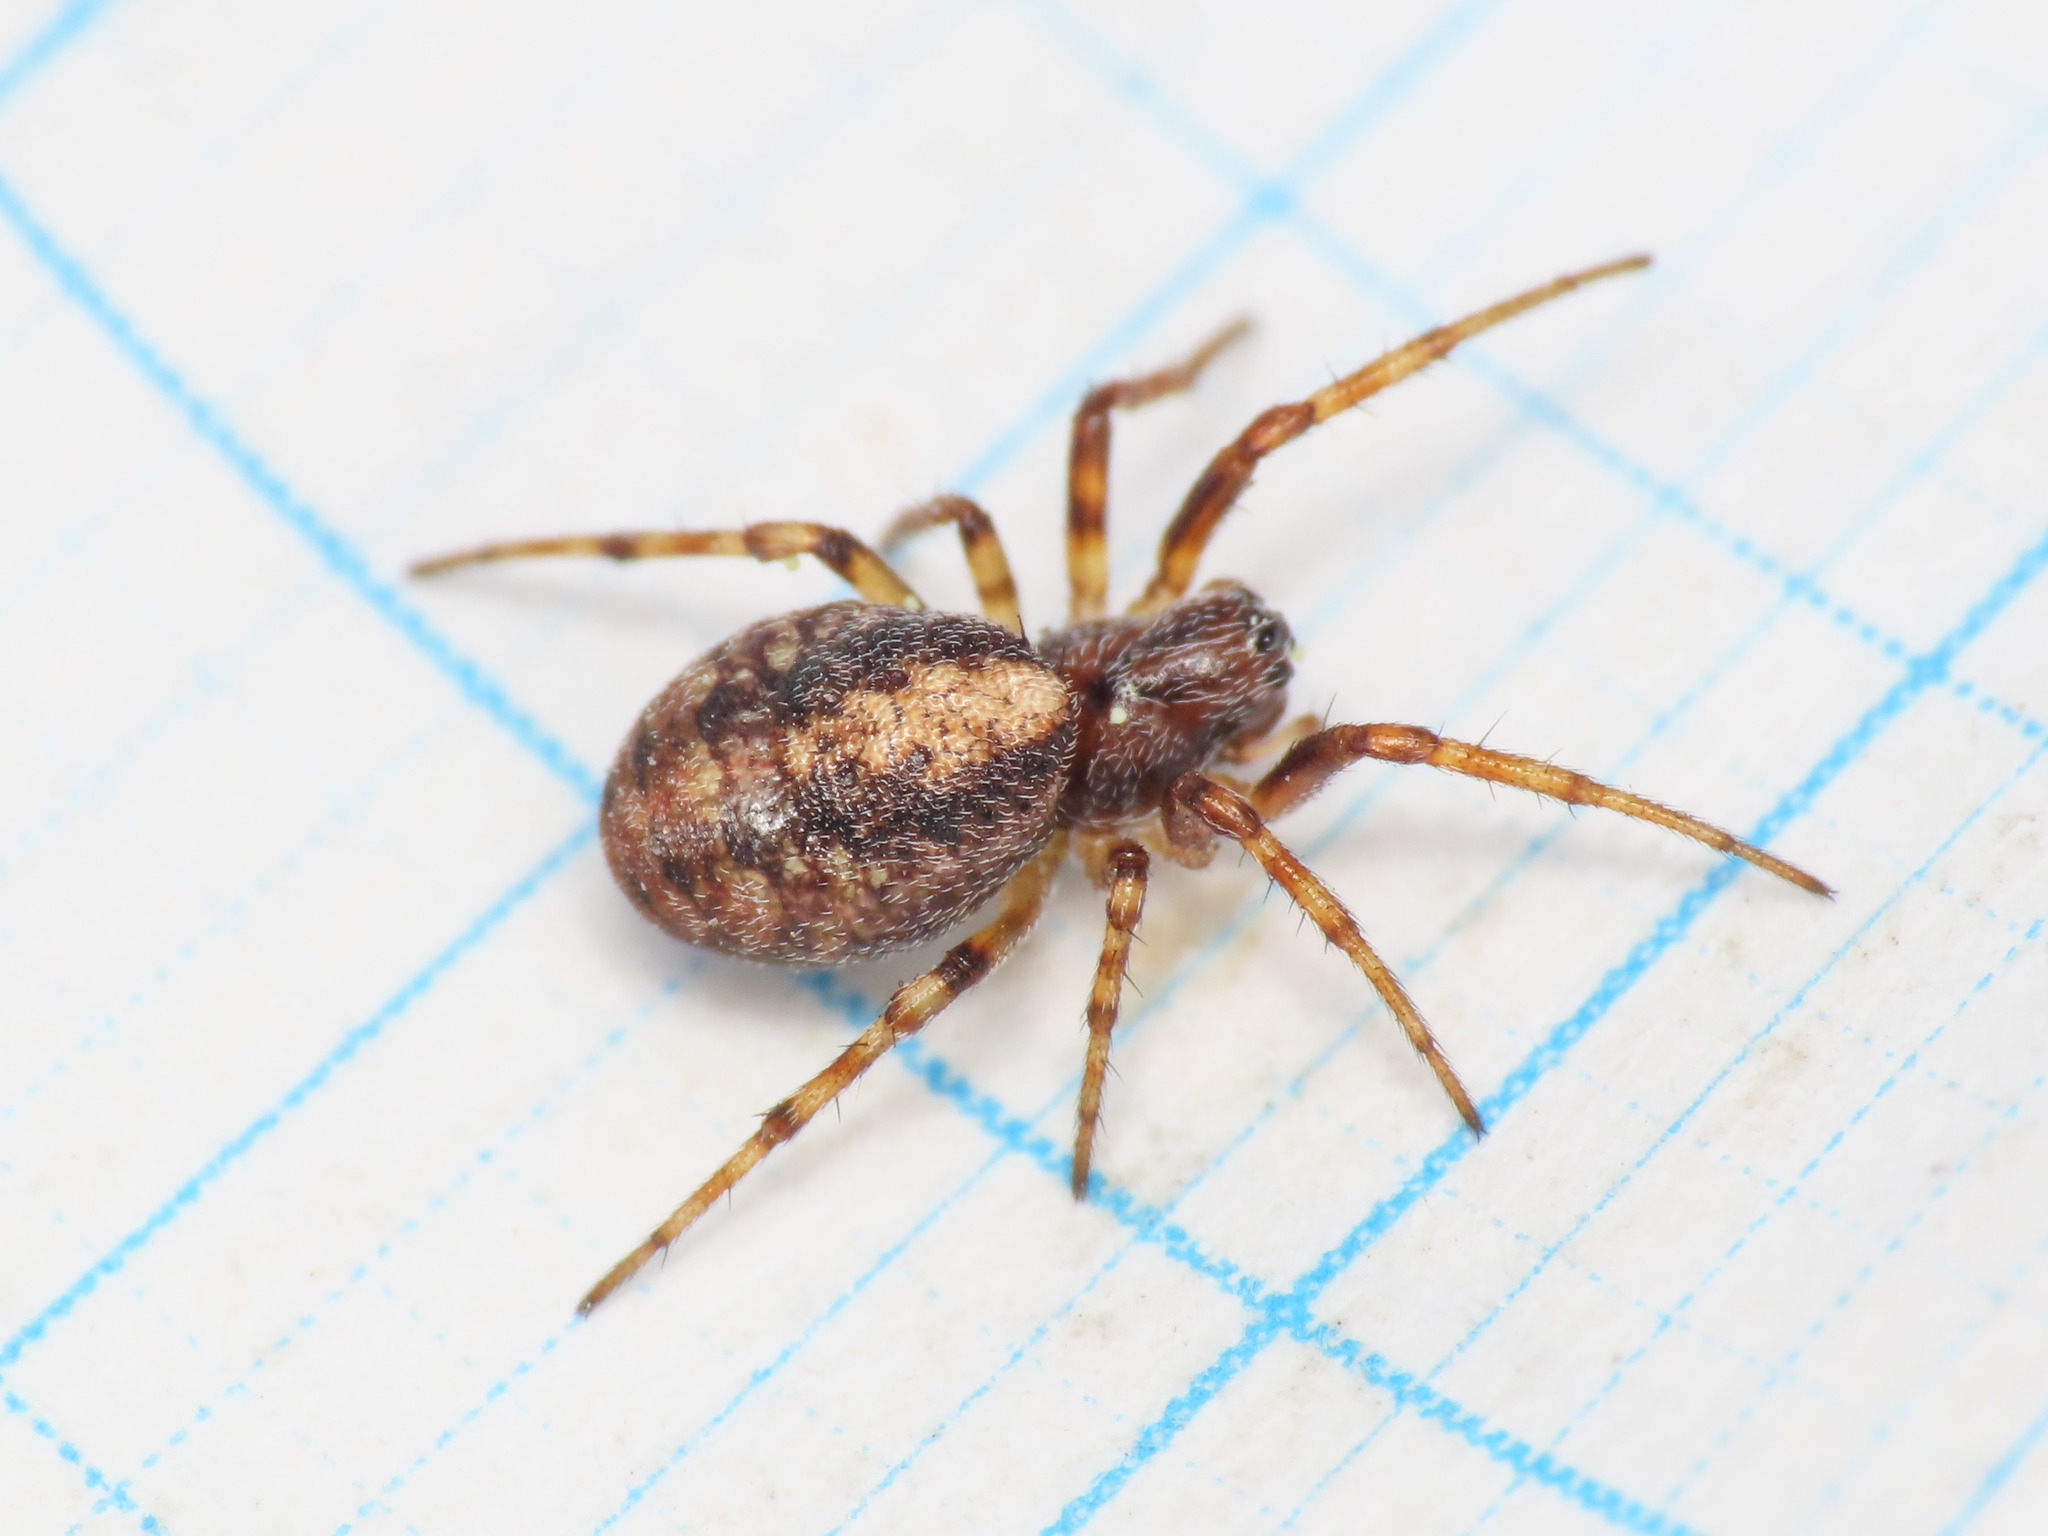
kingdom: Animalia
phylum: Arthropoda
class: Arachnida
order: Araneae
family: Araneidae
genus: Cercidia
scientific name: Cercidia prominens
